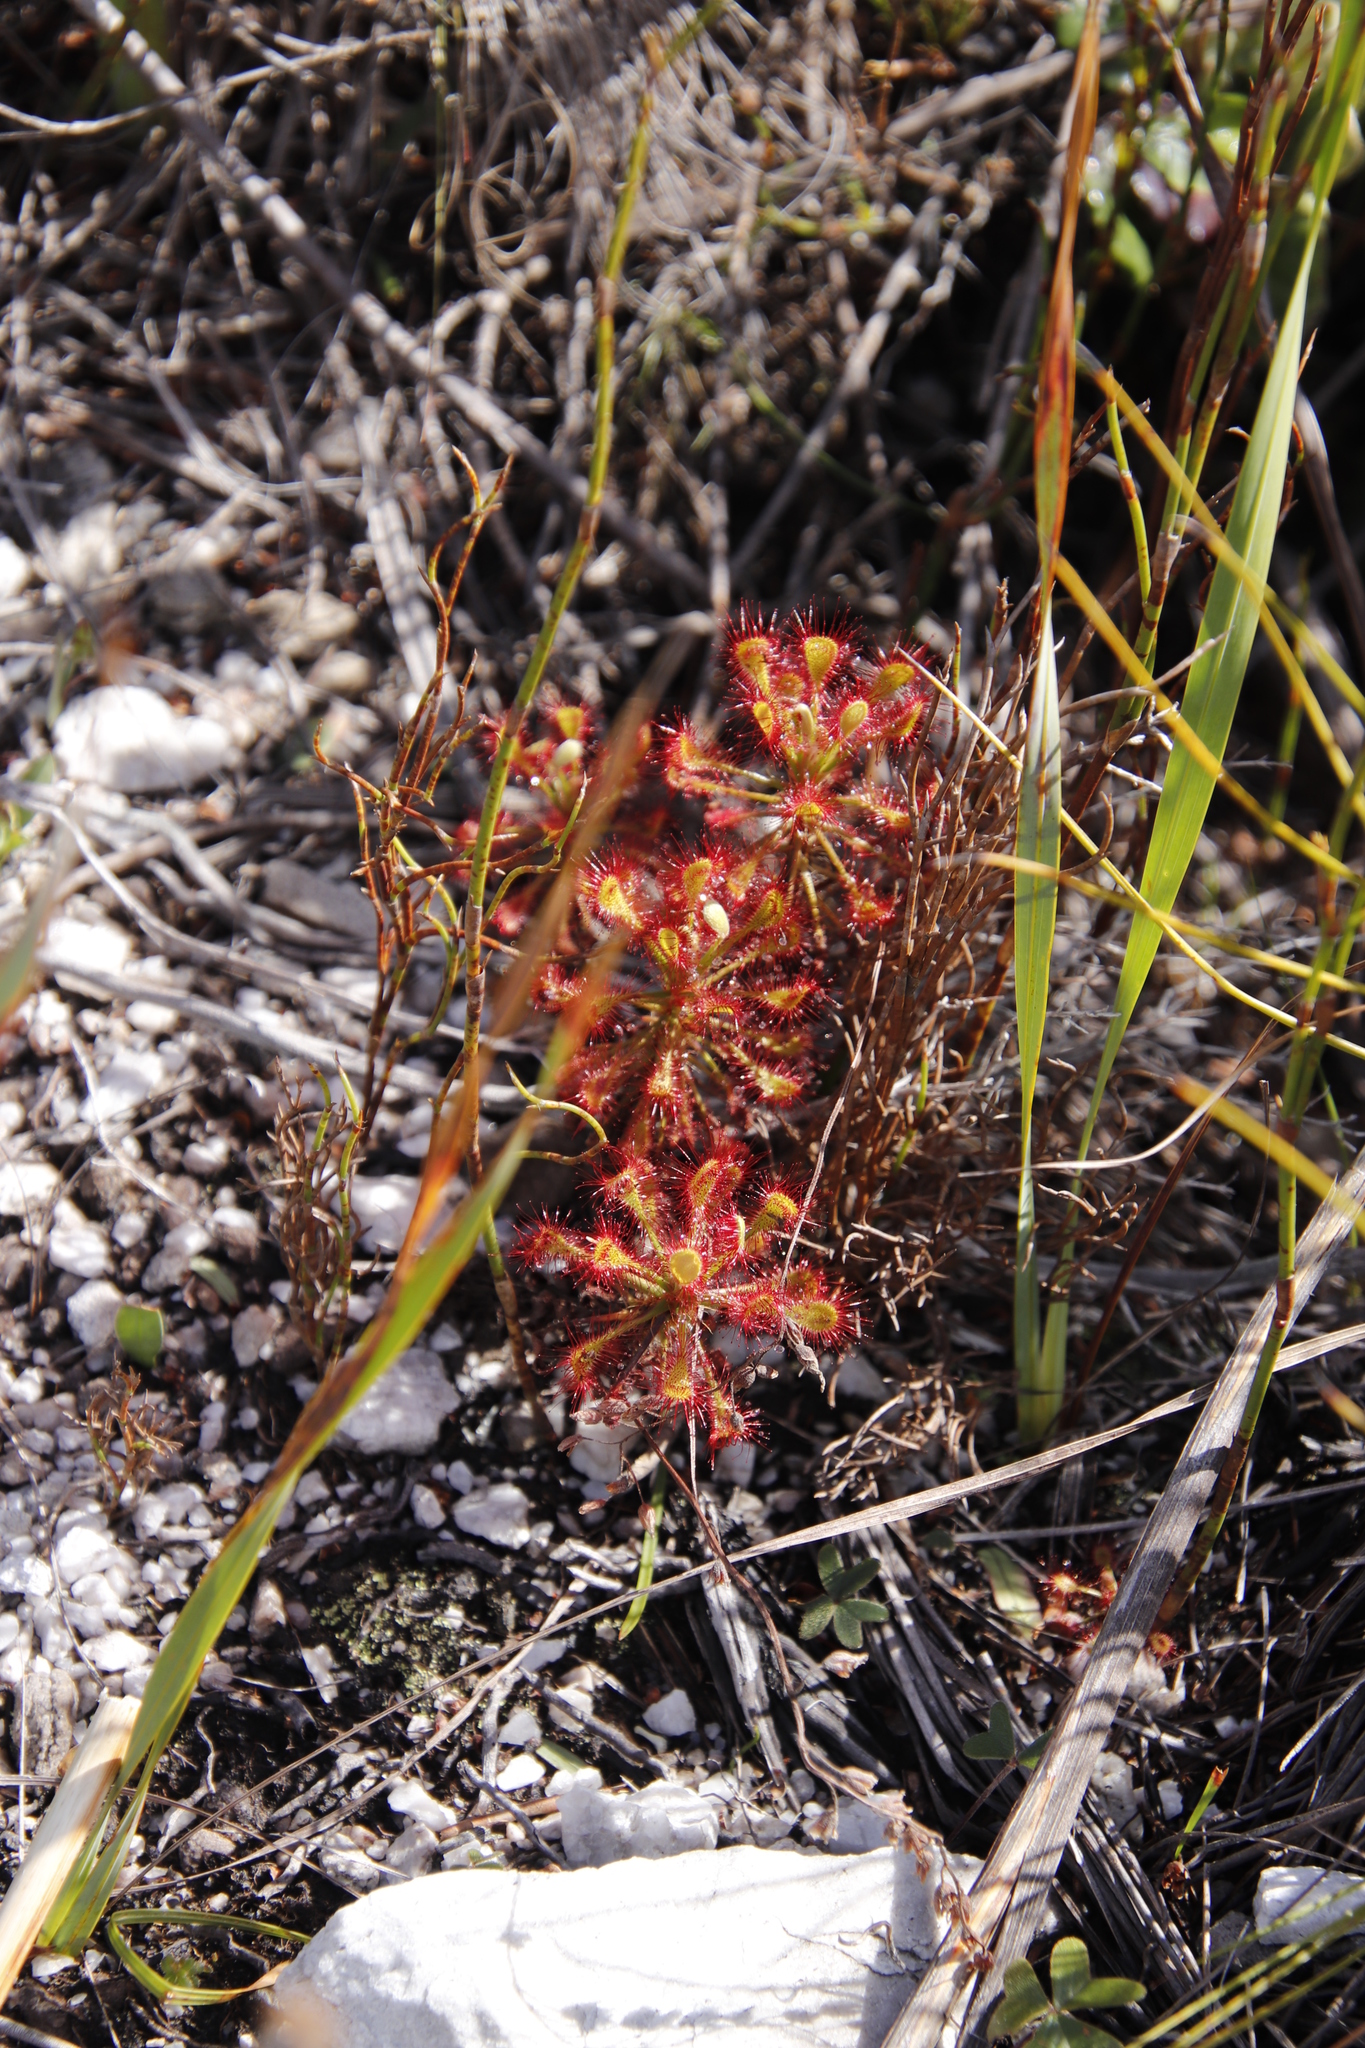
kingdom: Plantae
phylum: Tracheophyta
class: Magnoliopsida
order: Caryophyllales
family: Droseraceae
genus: Drosera
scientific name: Drosera glabripes
